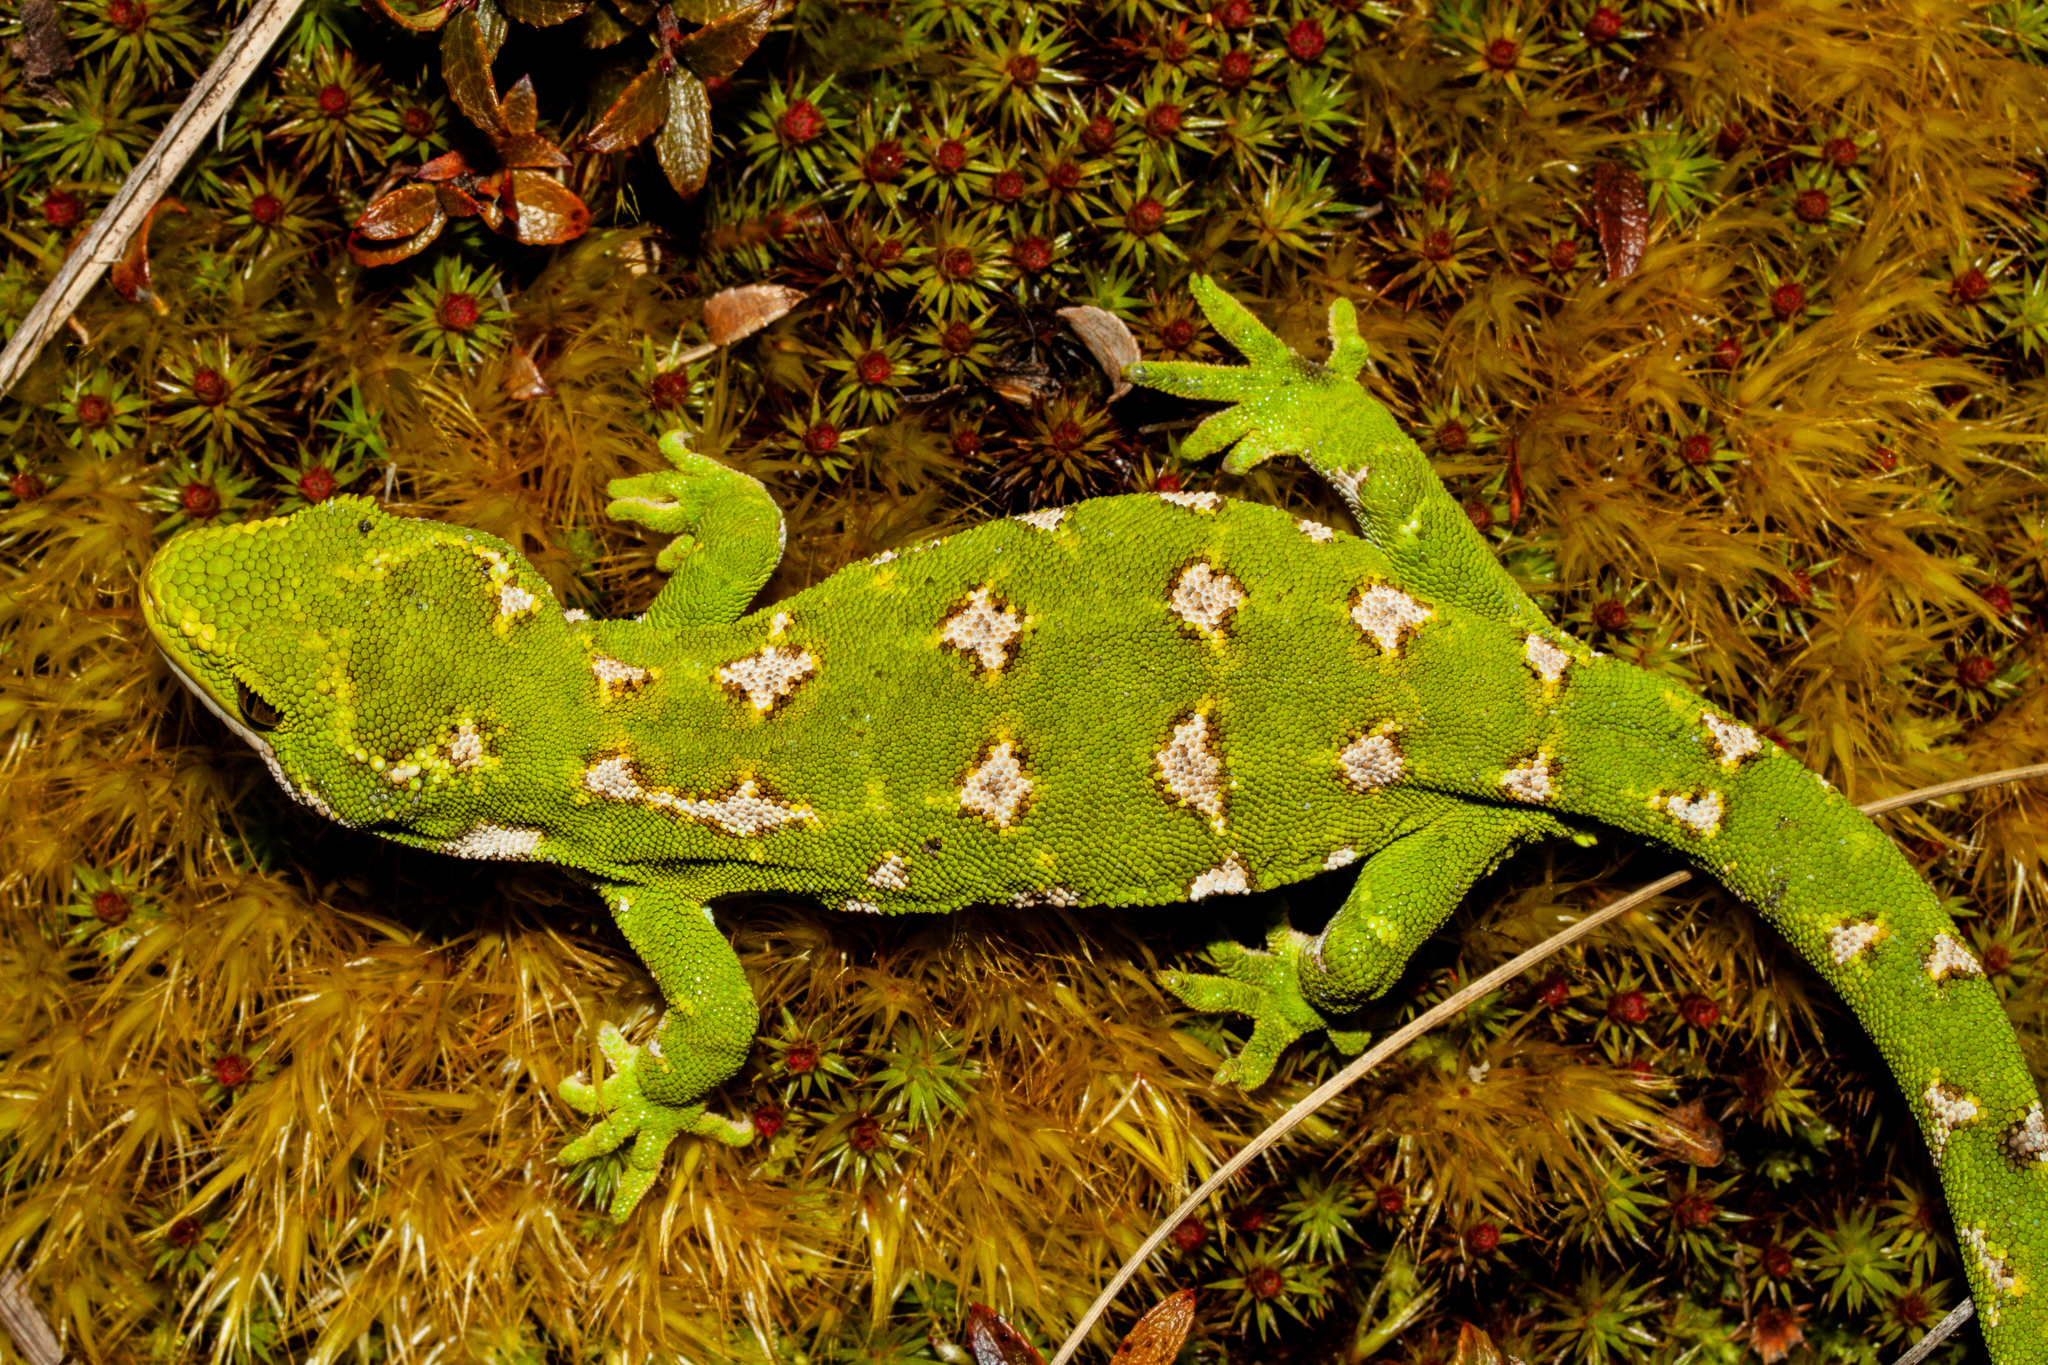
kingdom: Animalia
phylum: Chordata
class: Squamata
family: Diplodactylidae
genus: Naultinus
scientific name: Naultinus gemmeus
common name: Jewelled gecko
